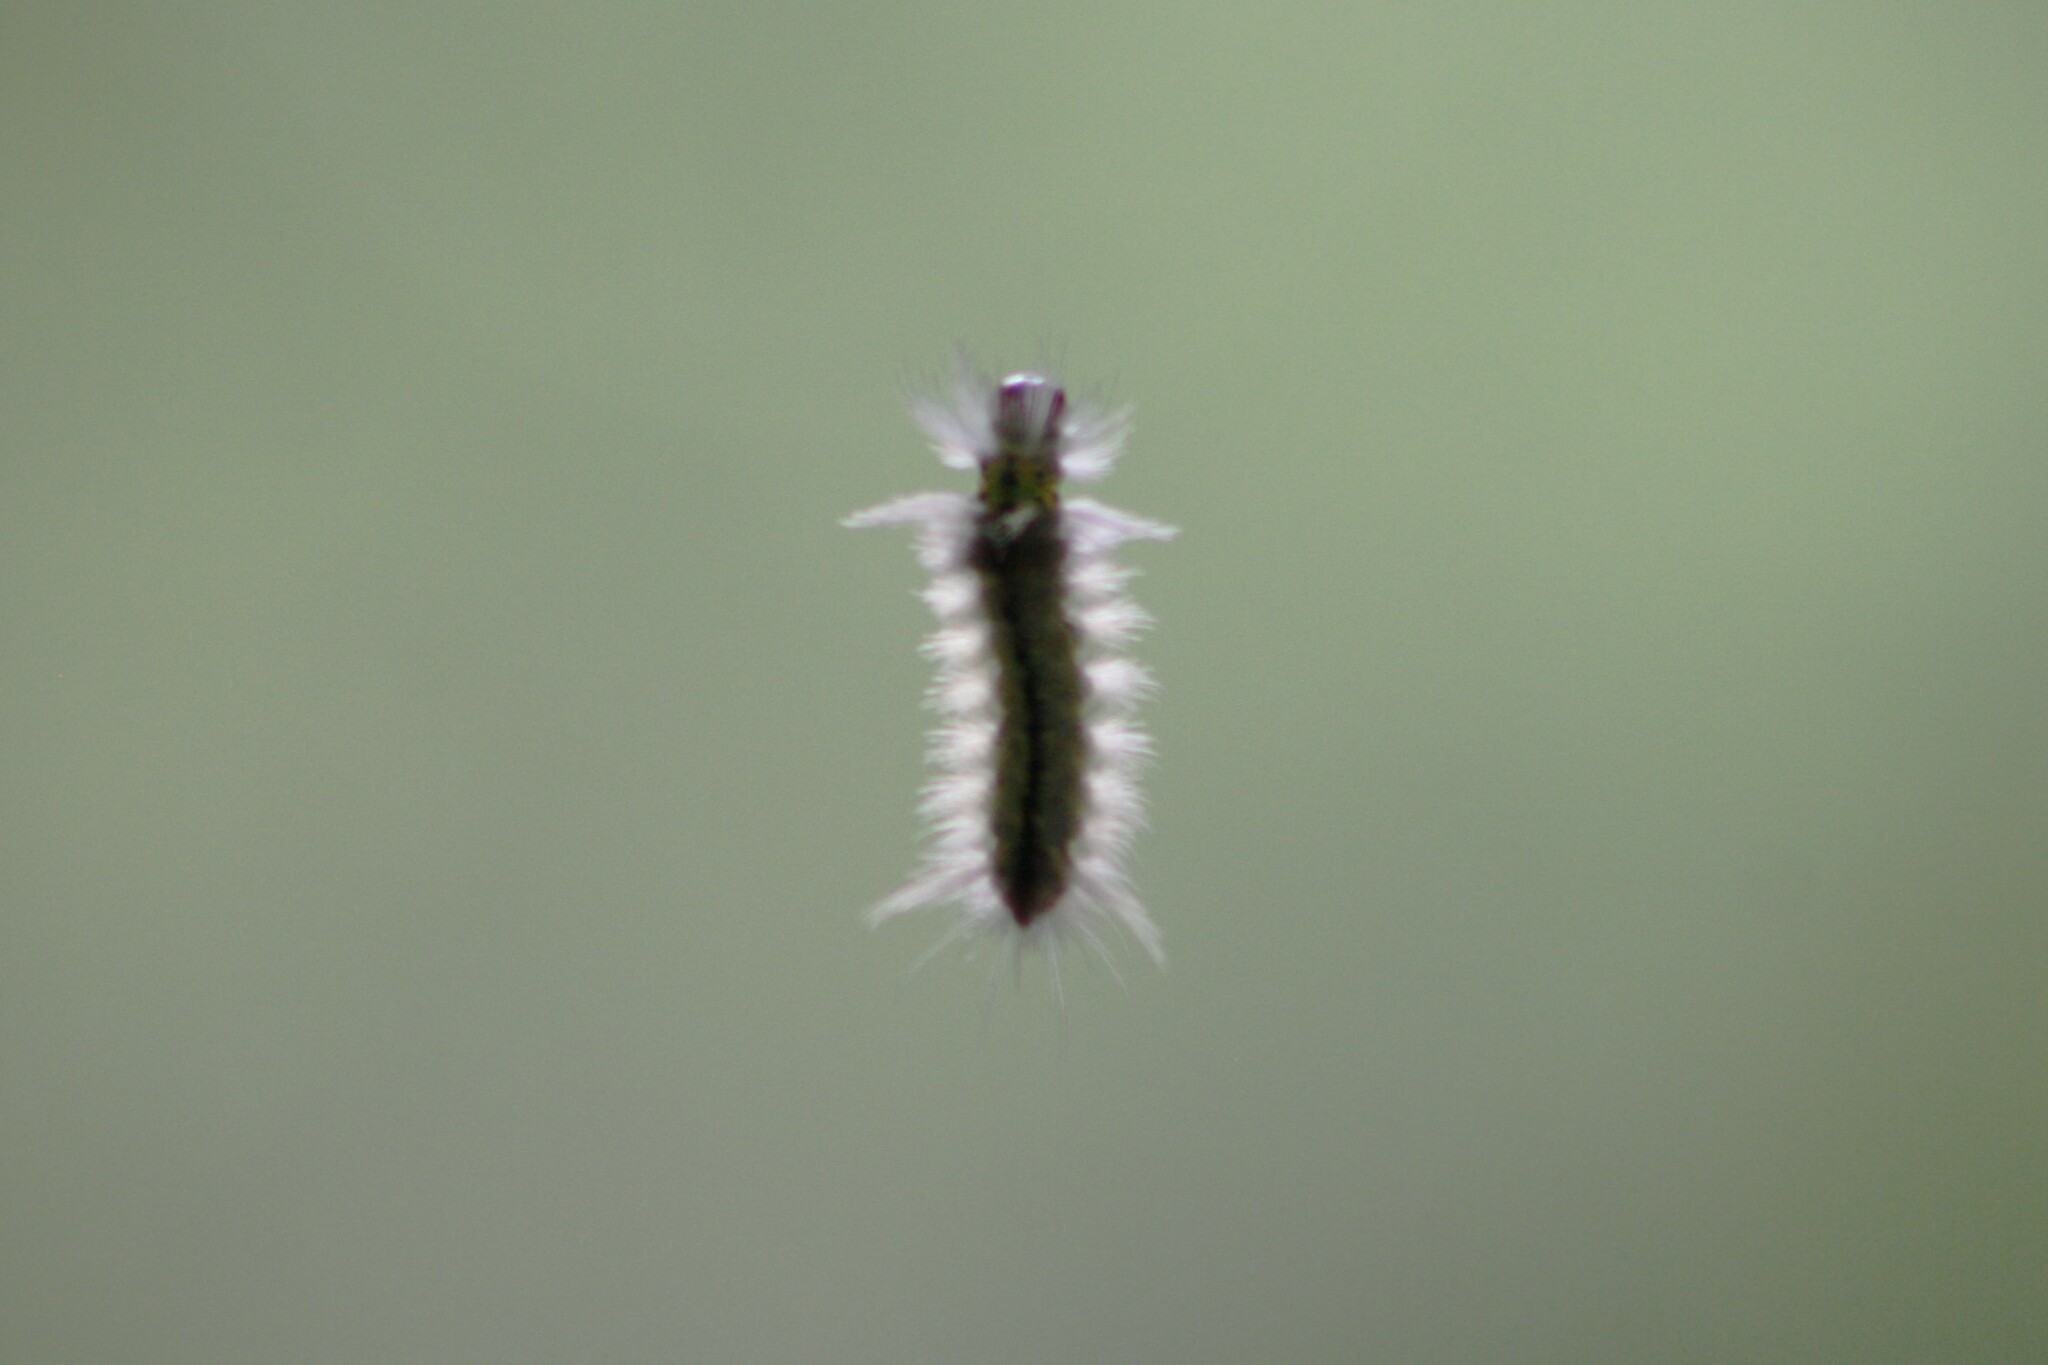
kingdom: Animalia
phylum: Arthropoda
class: Insecta
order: Lepidoptera
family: Erebidae
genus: Halysidota
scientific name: Halysidota schausi
